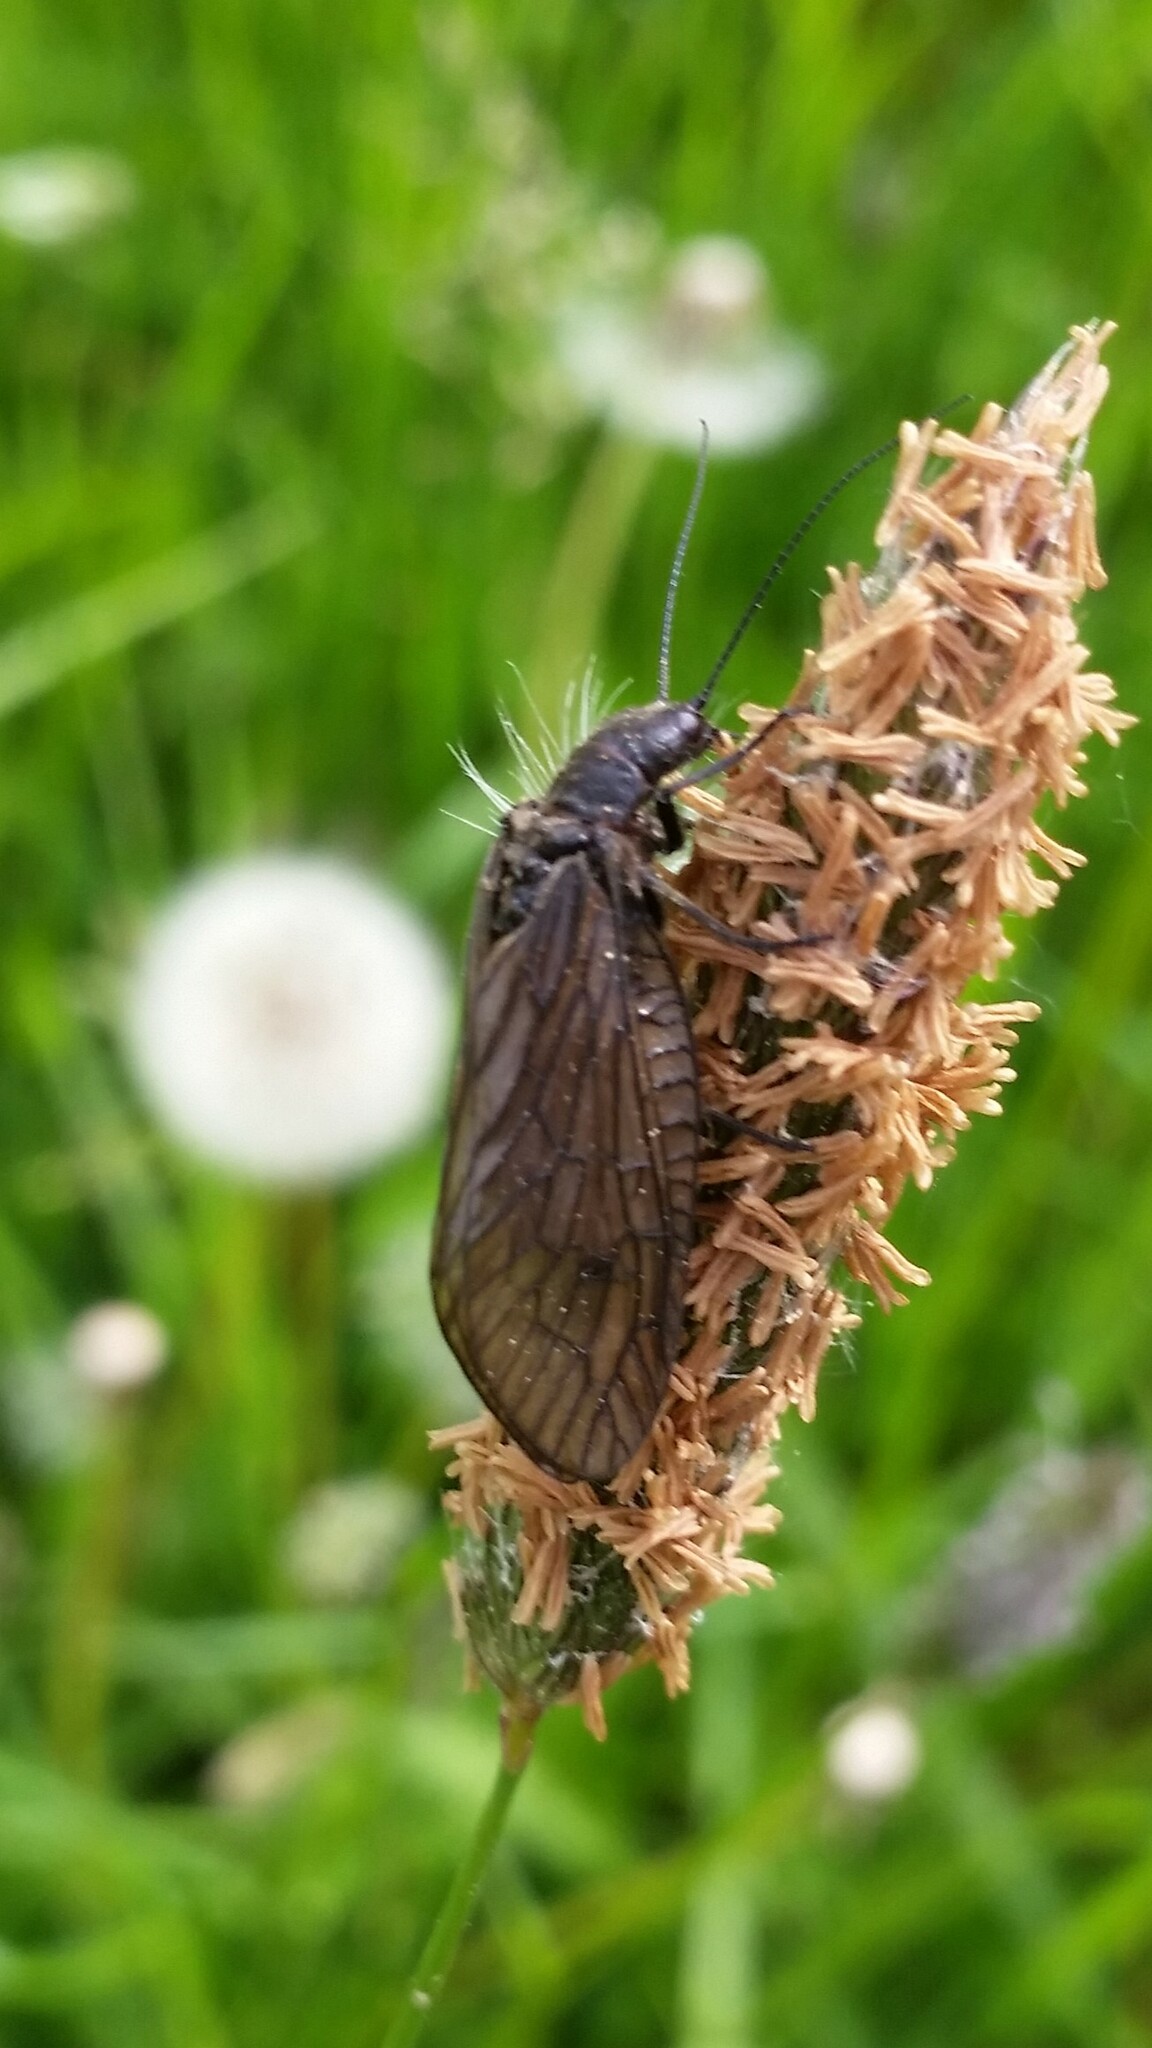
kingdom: Animalia
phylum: Arthropoda
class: Insecta
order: Megaloptera
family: Sialidae
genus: Sialis
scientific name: Sialis
